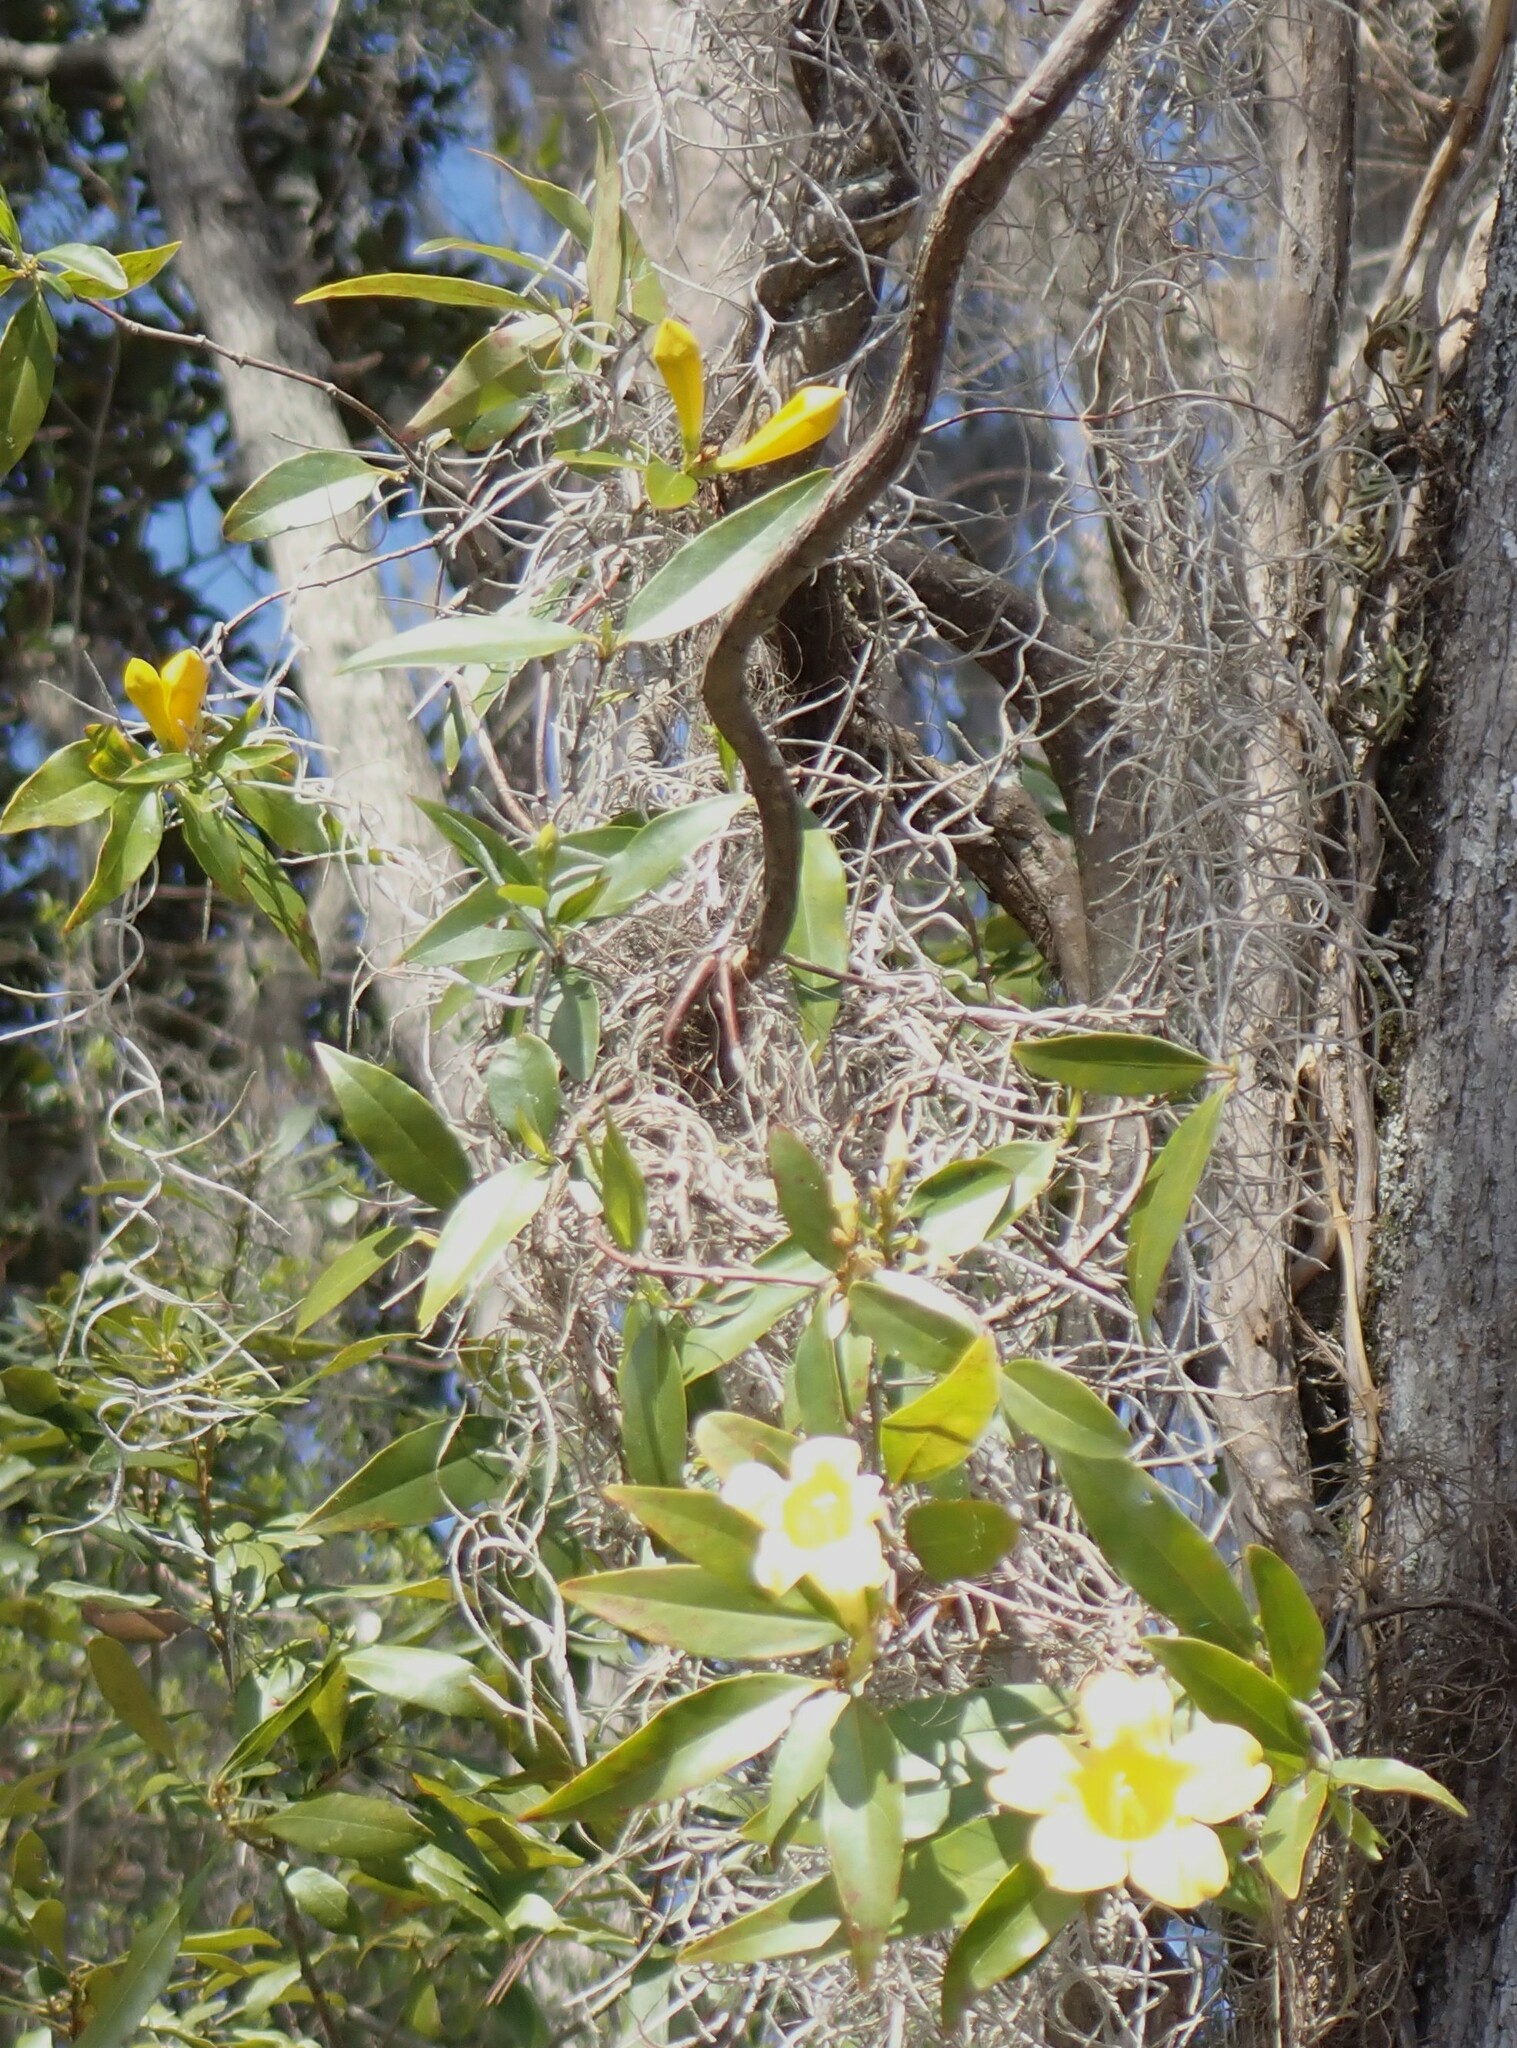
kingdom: Plantae
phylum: Tracheophyta
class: Magnoliopsida
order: Gentianales
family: Gelsemiaceae
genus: Gelsemium
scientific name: Gelsemium sempervirens
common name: Carolina-jasmine
